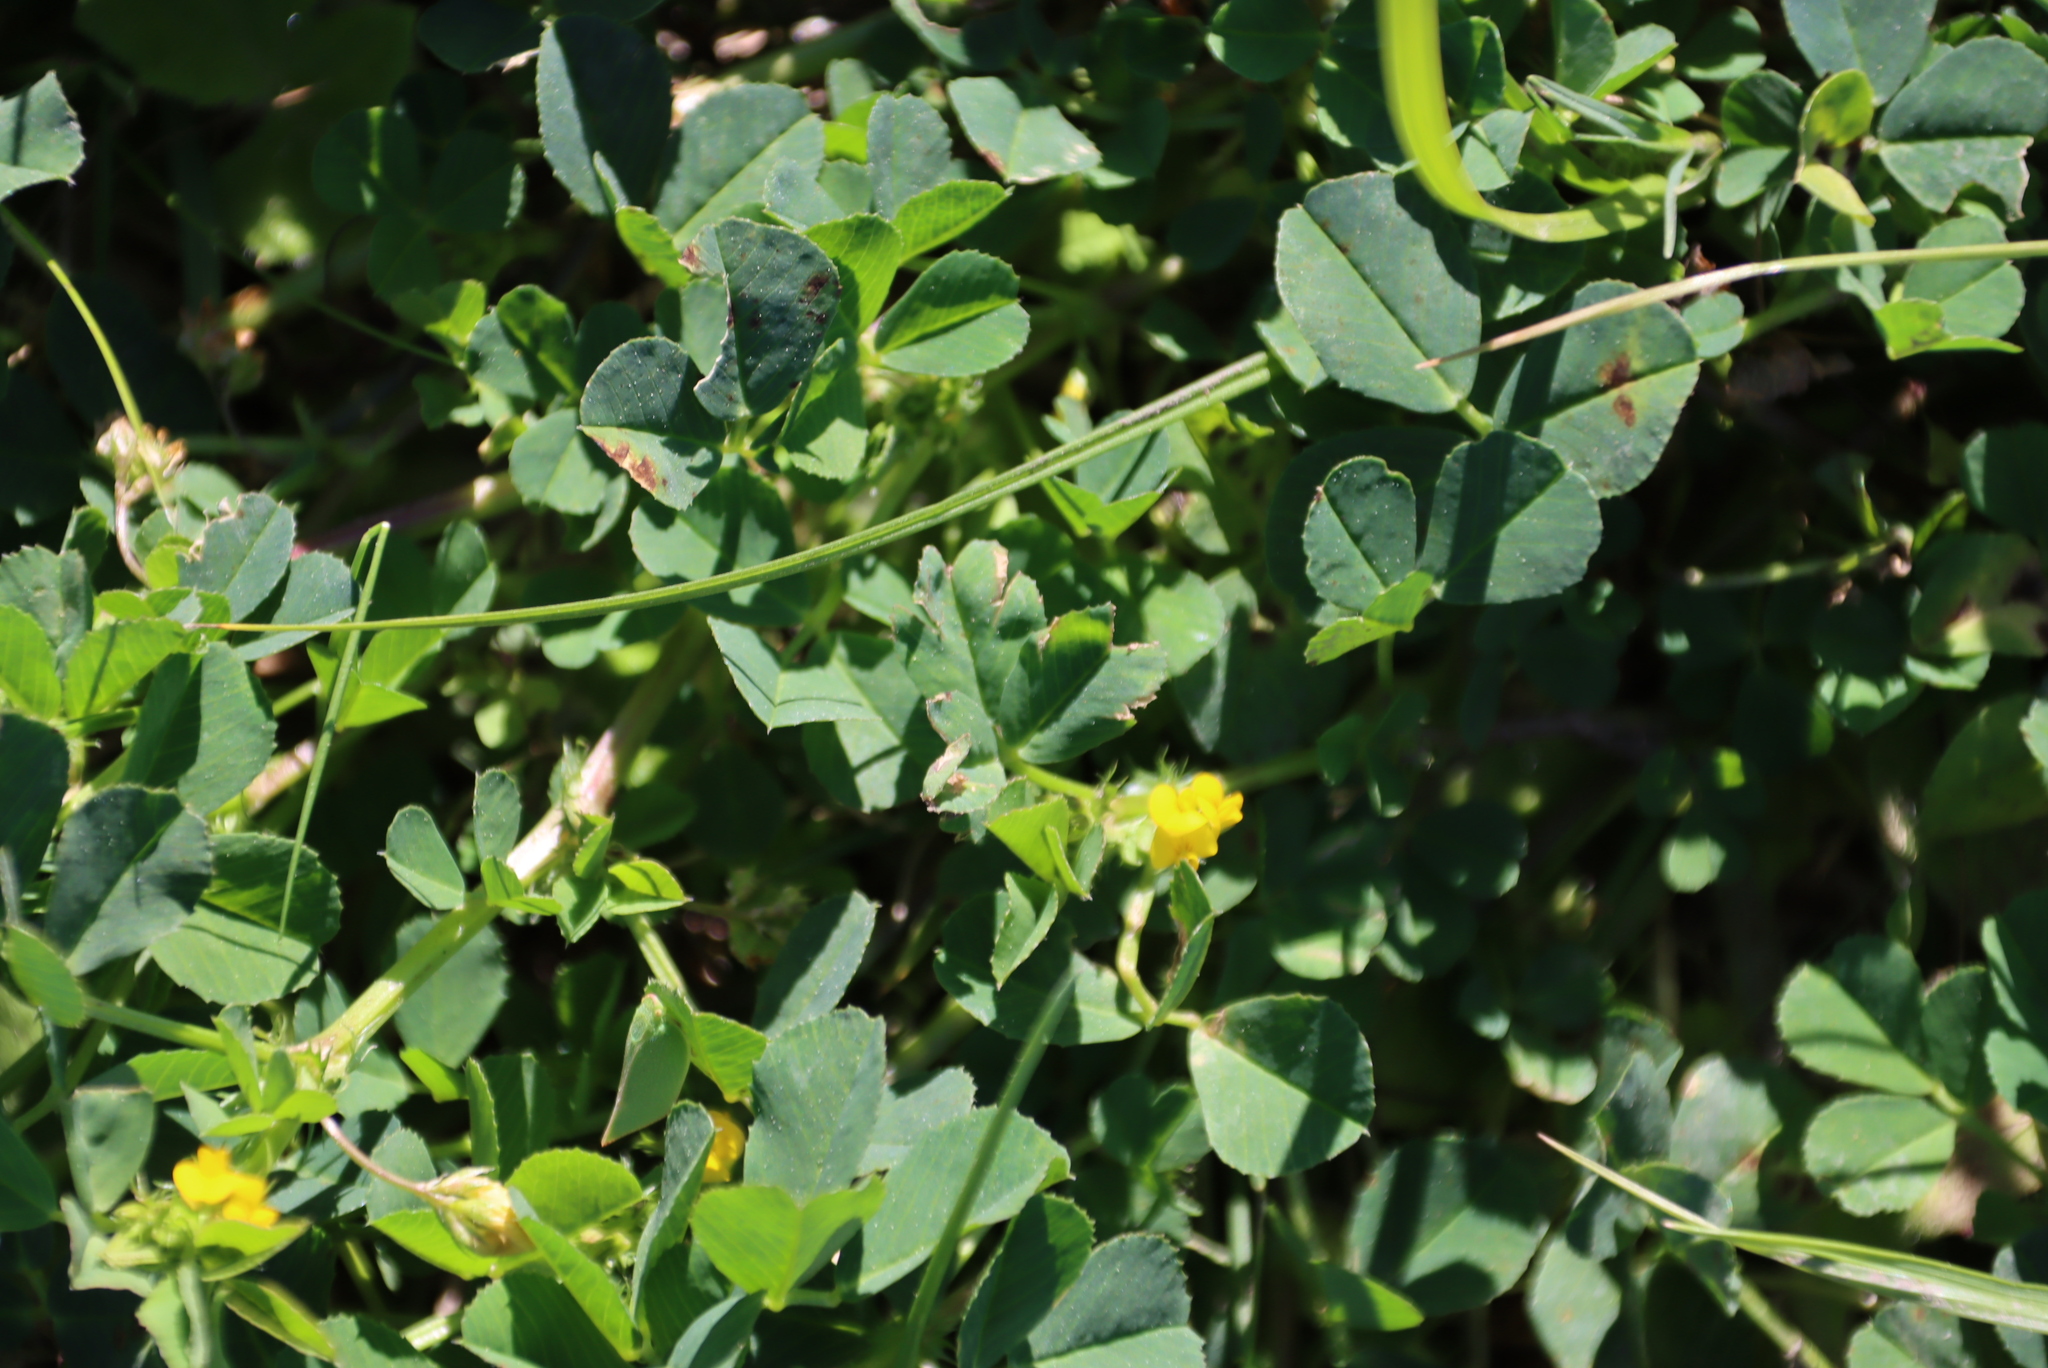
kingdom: Plantae
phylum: Tracheophyta
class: Magnoliopsida
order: Fabales
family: Fabaceae
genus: Medicago
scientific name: Medicago polymorpha
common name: Burclover
